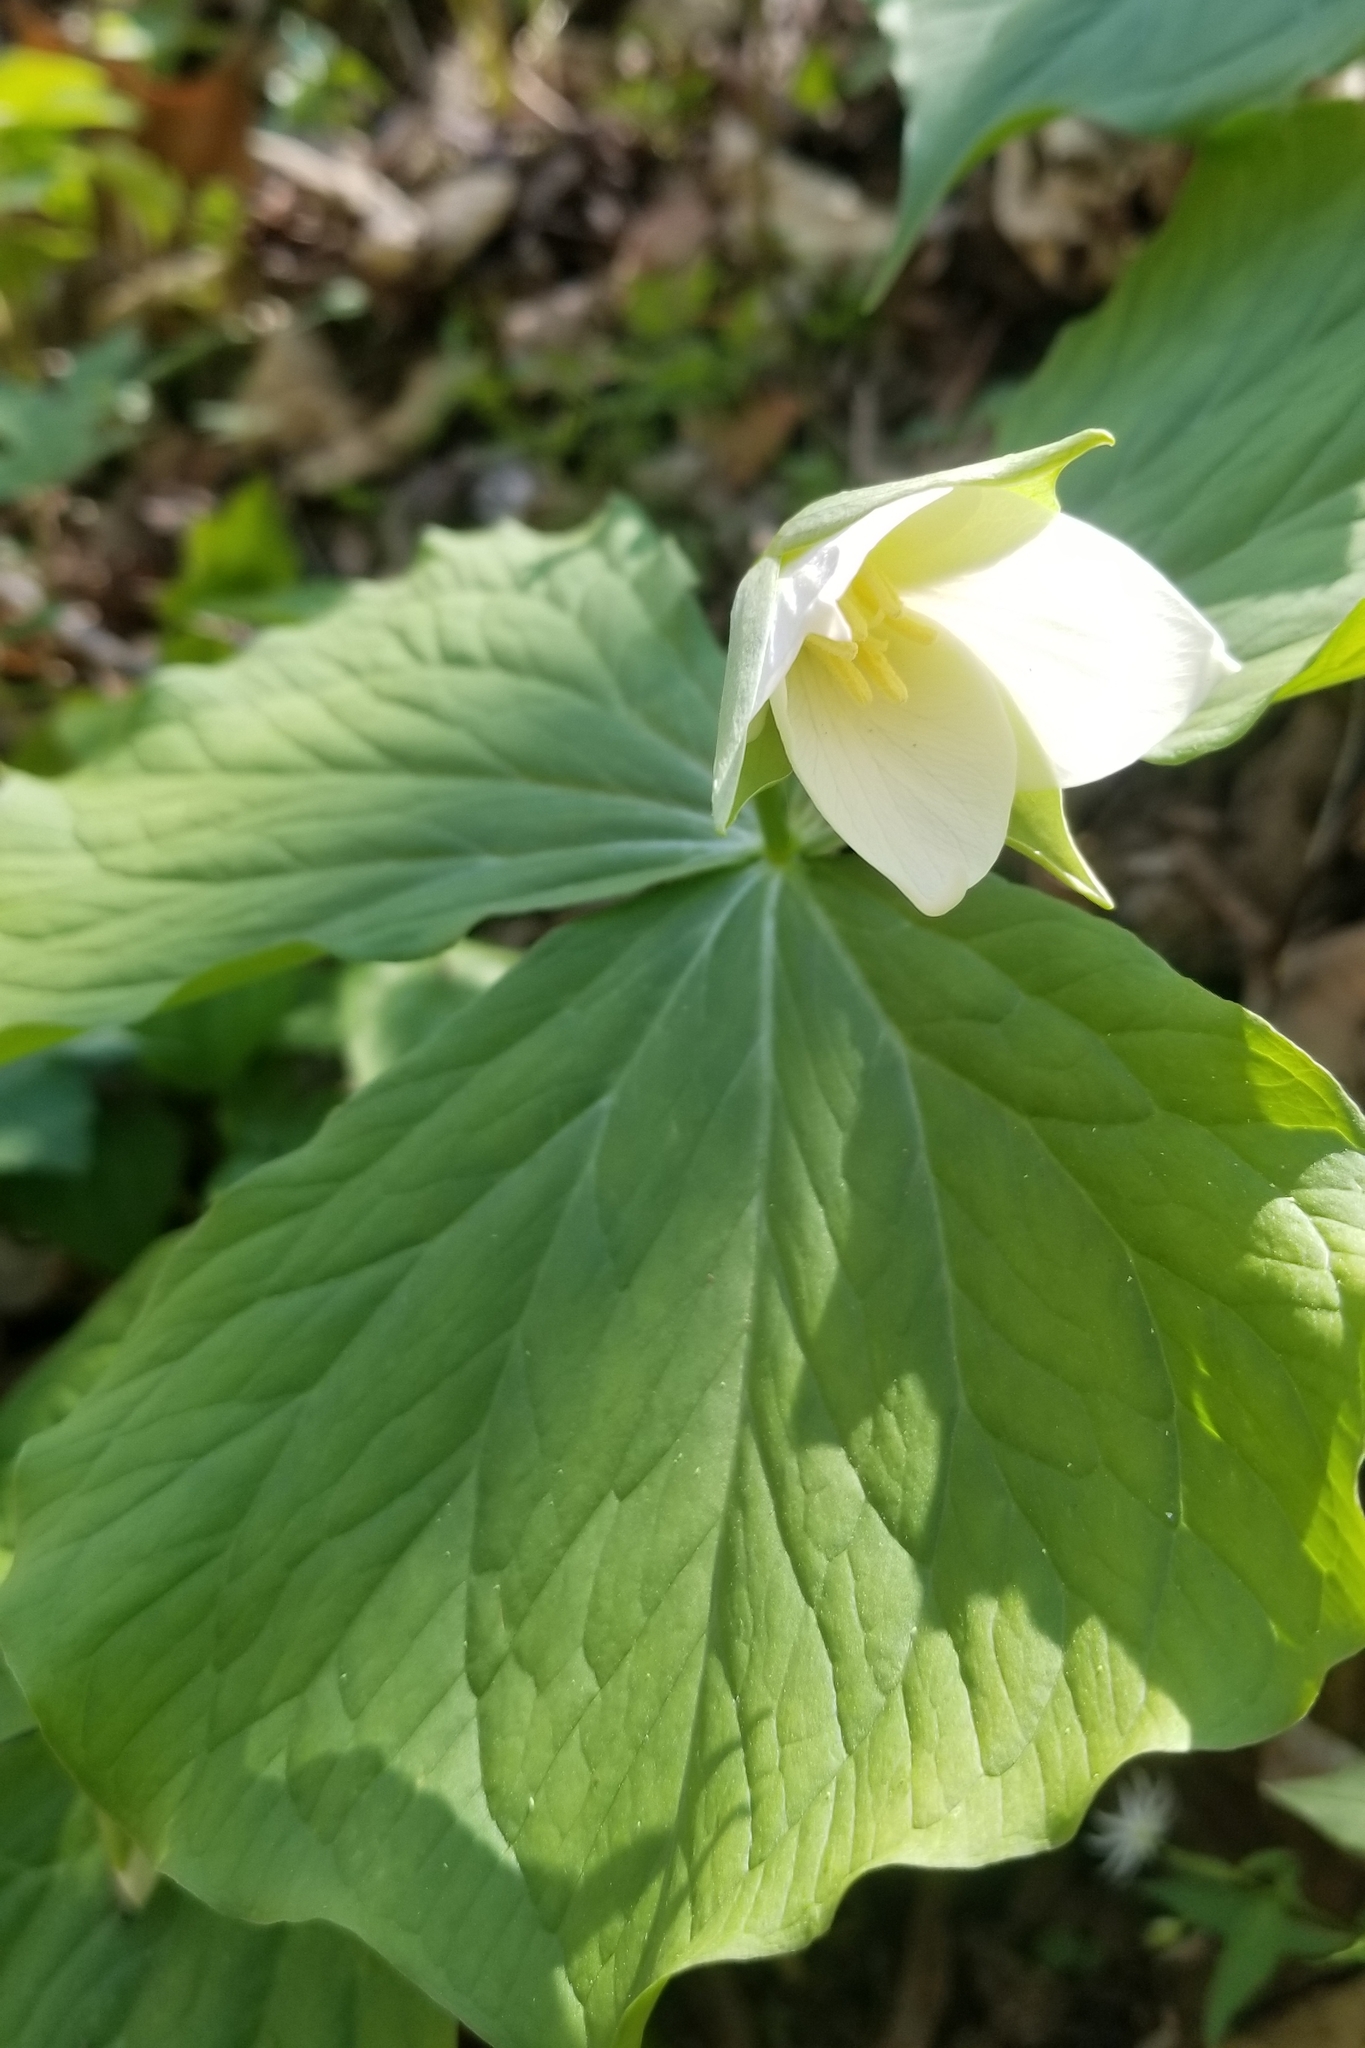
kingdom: Plantae
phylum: Tracheophyta
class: Liliopsida
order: Liliales
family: Melanthiaceae
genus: Trillium
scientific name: Trillium flexipes
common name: Drooping trillium
